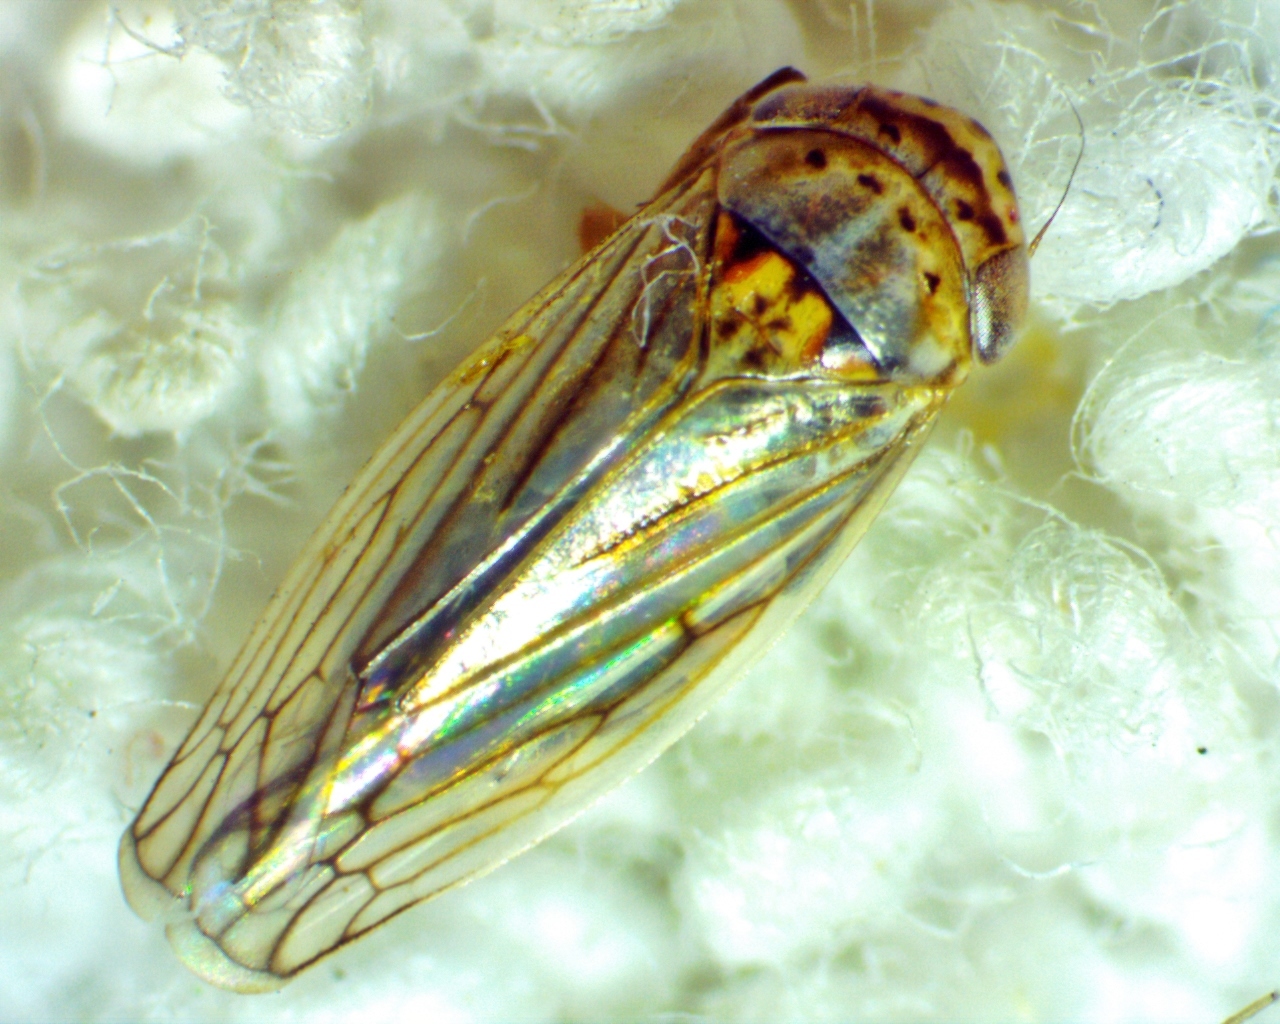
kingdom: Animalia
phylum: Arthropoda
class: Insecta
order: Hemiptera
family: Cicadellidae
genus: Exitianus
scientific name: Exitianus exitiosus
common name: Gray lawn leafhopper
